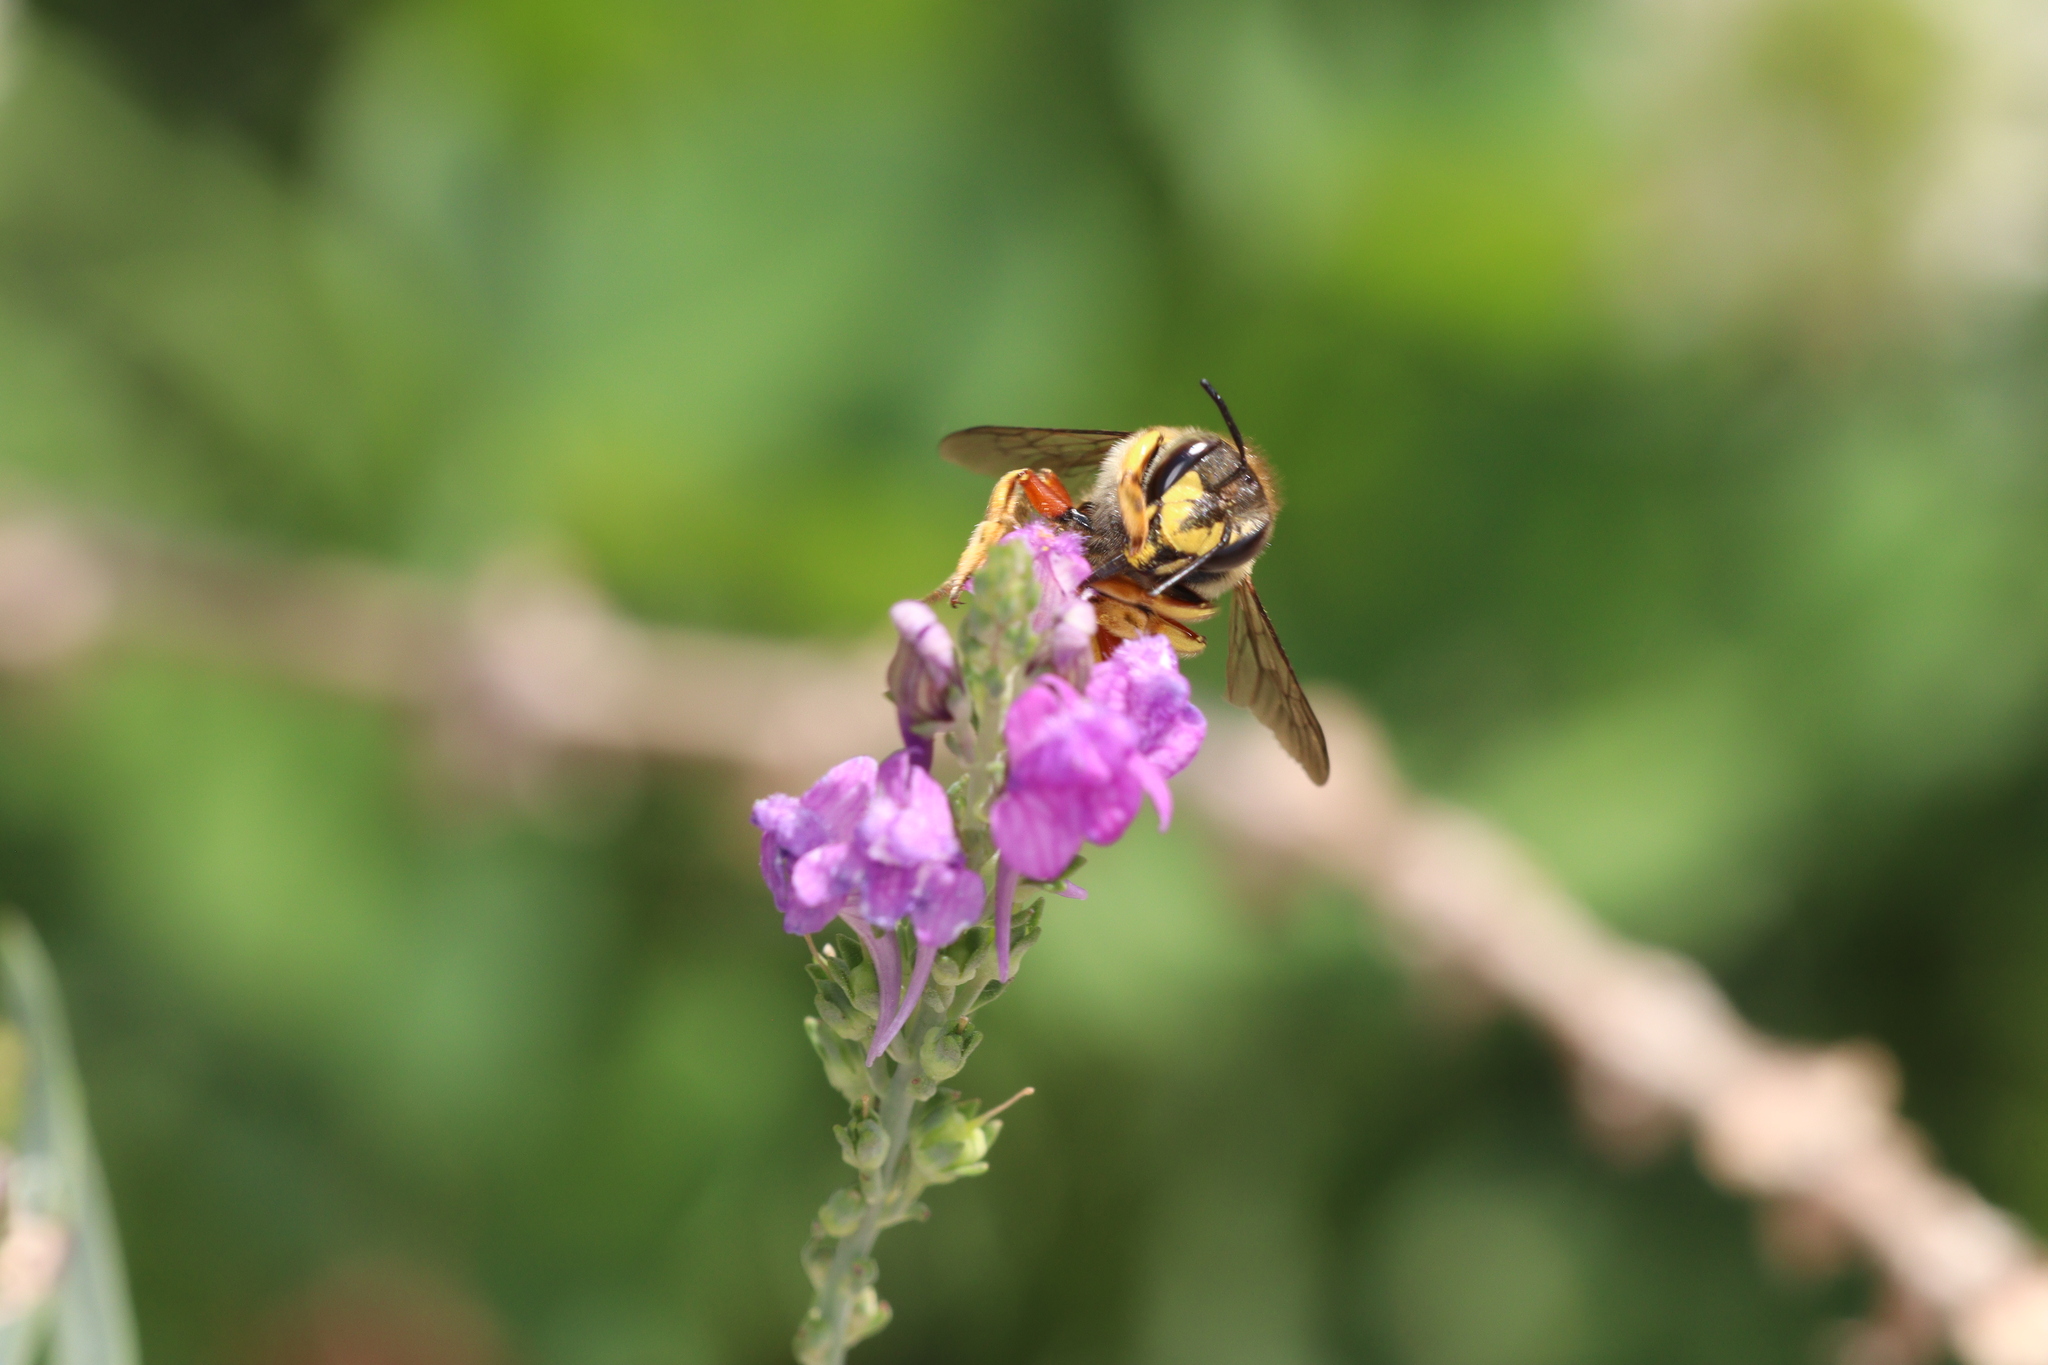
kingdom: Animalia
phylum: Arthropoda
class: Insecta
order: Hymenoptera
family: Megachilidae
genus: Anthidium
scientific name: Anthidium manicatum
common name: Wool carder bee
